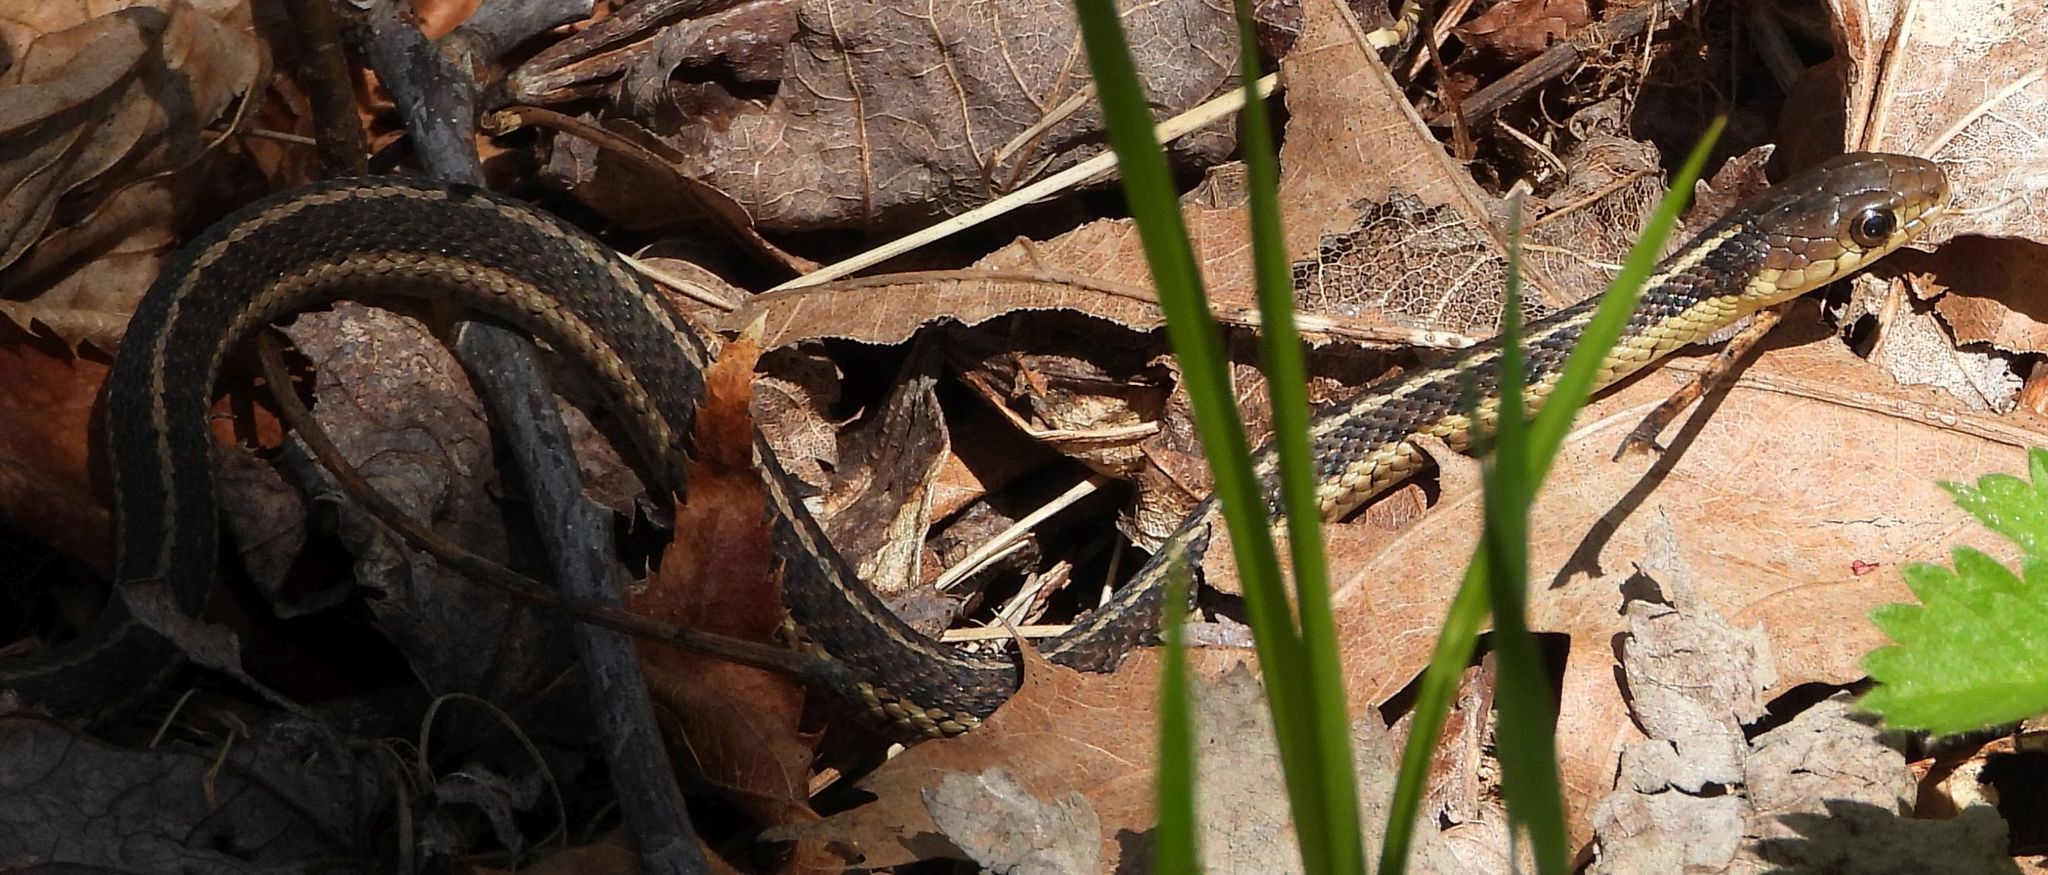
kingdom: Animalia
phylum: Chordata
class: Squamata
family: Colubridae
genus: Thamnophis
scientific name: Thamnophis sirtalis
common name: Common garter snake
